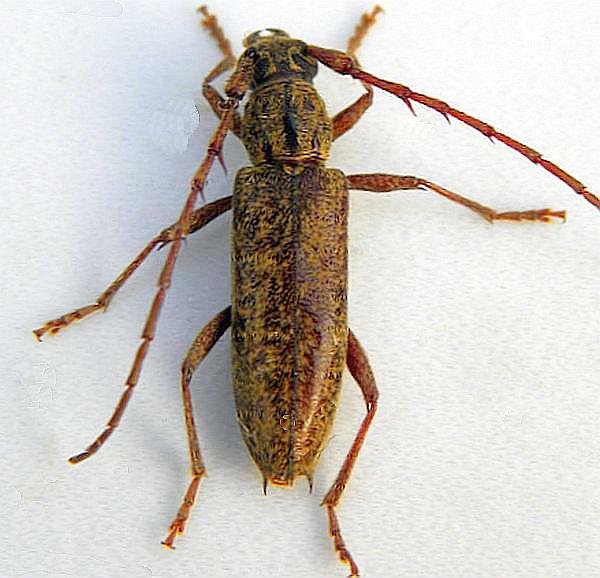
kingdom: Animalia
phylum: Arthropoda
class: Insecta
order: Coleoptera
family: Cerambycidae
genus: Elaphidion
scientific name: Elaphidion mucronatum
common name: Spined oak borer
